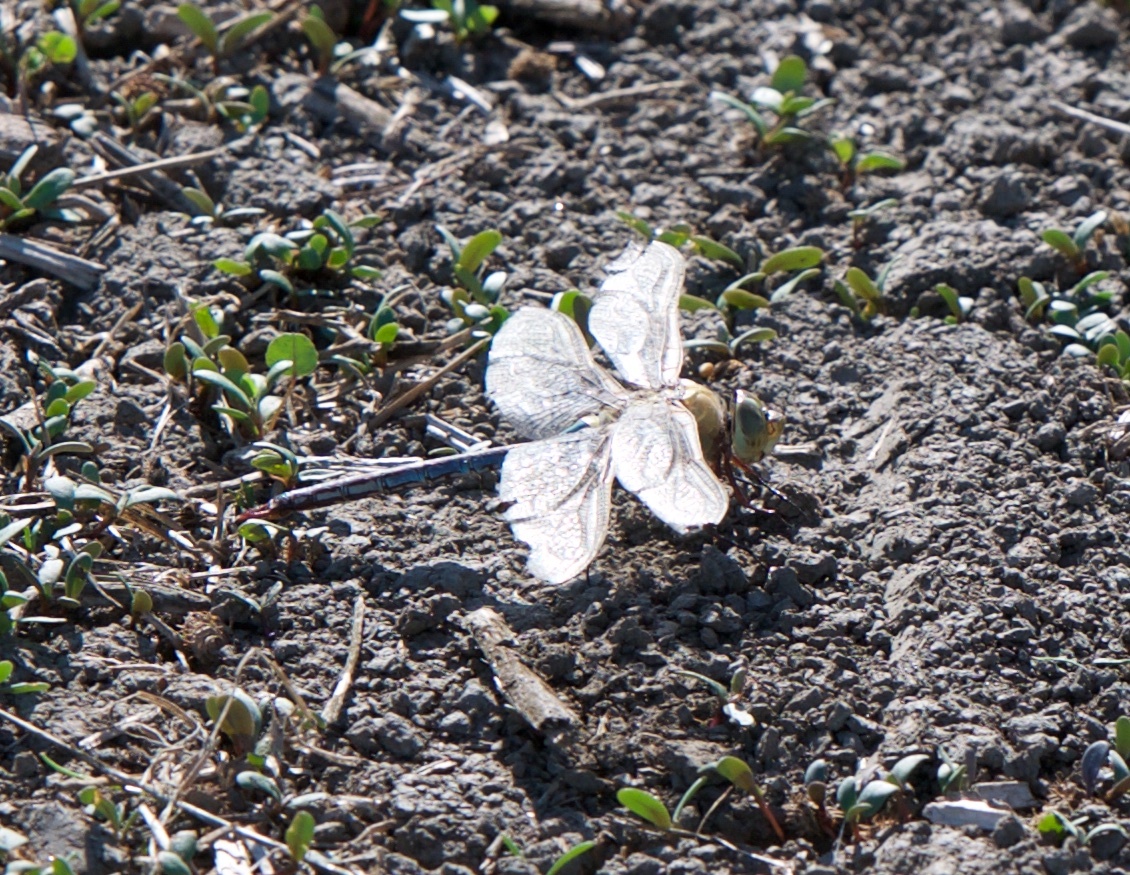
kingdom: Animalia
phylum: Arthropoda
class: Insecta
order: Odonata
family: Aeshnidae
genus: Anax
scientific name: Anax junius
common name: Common green darner
